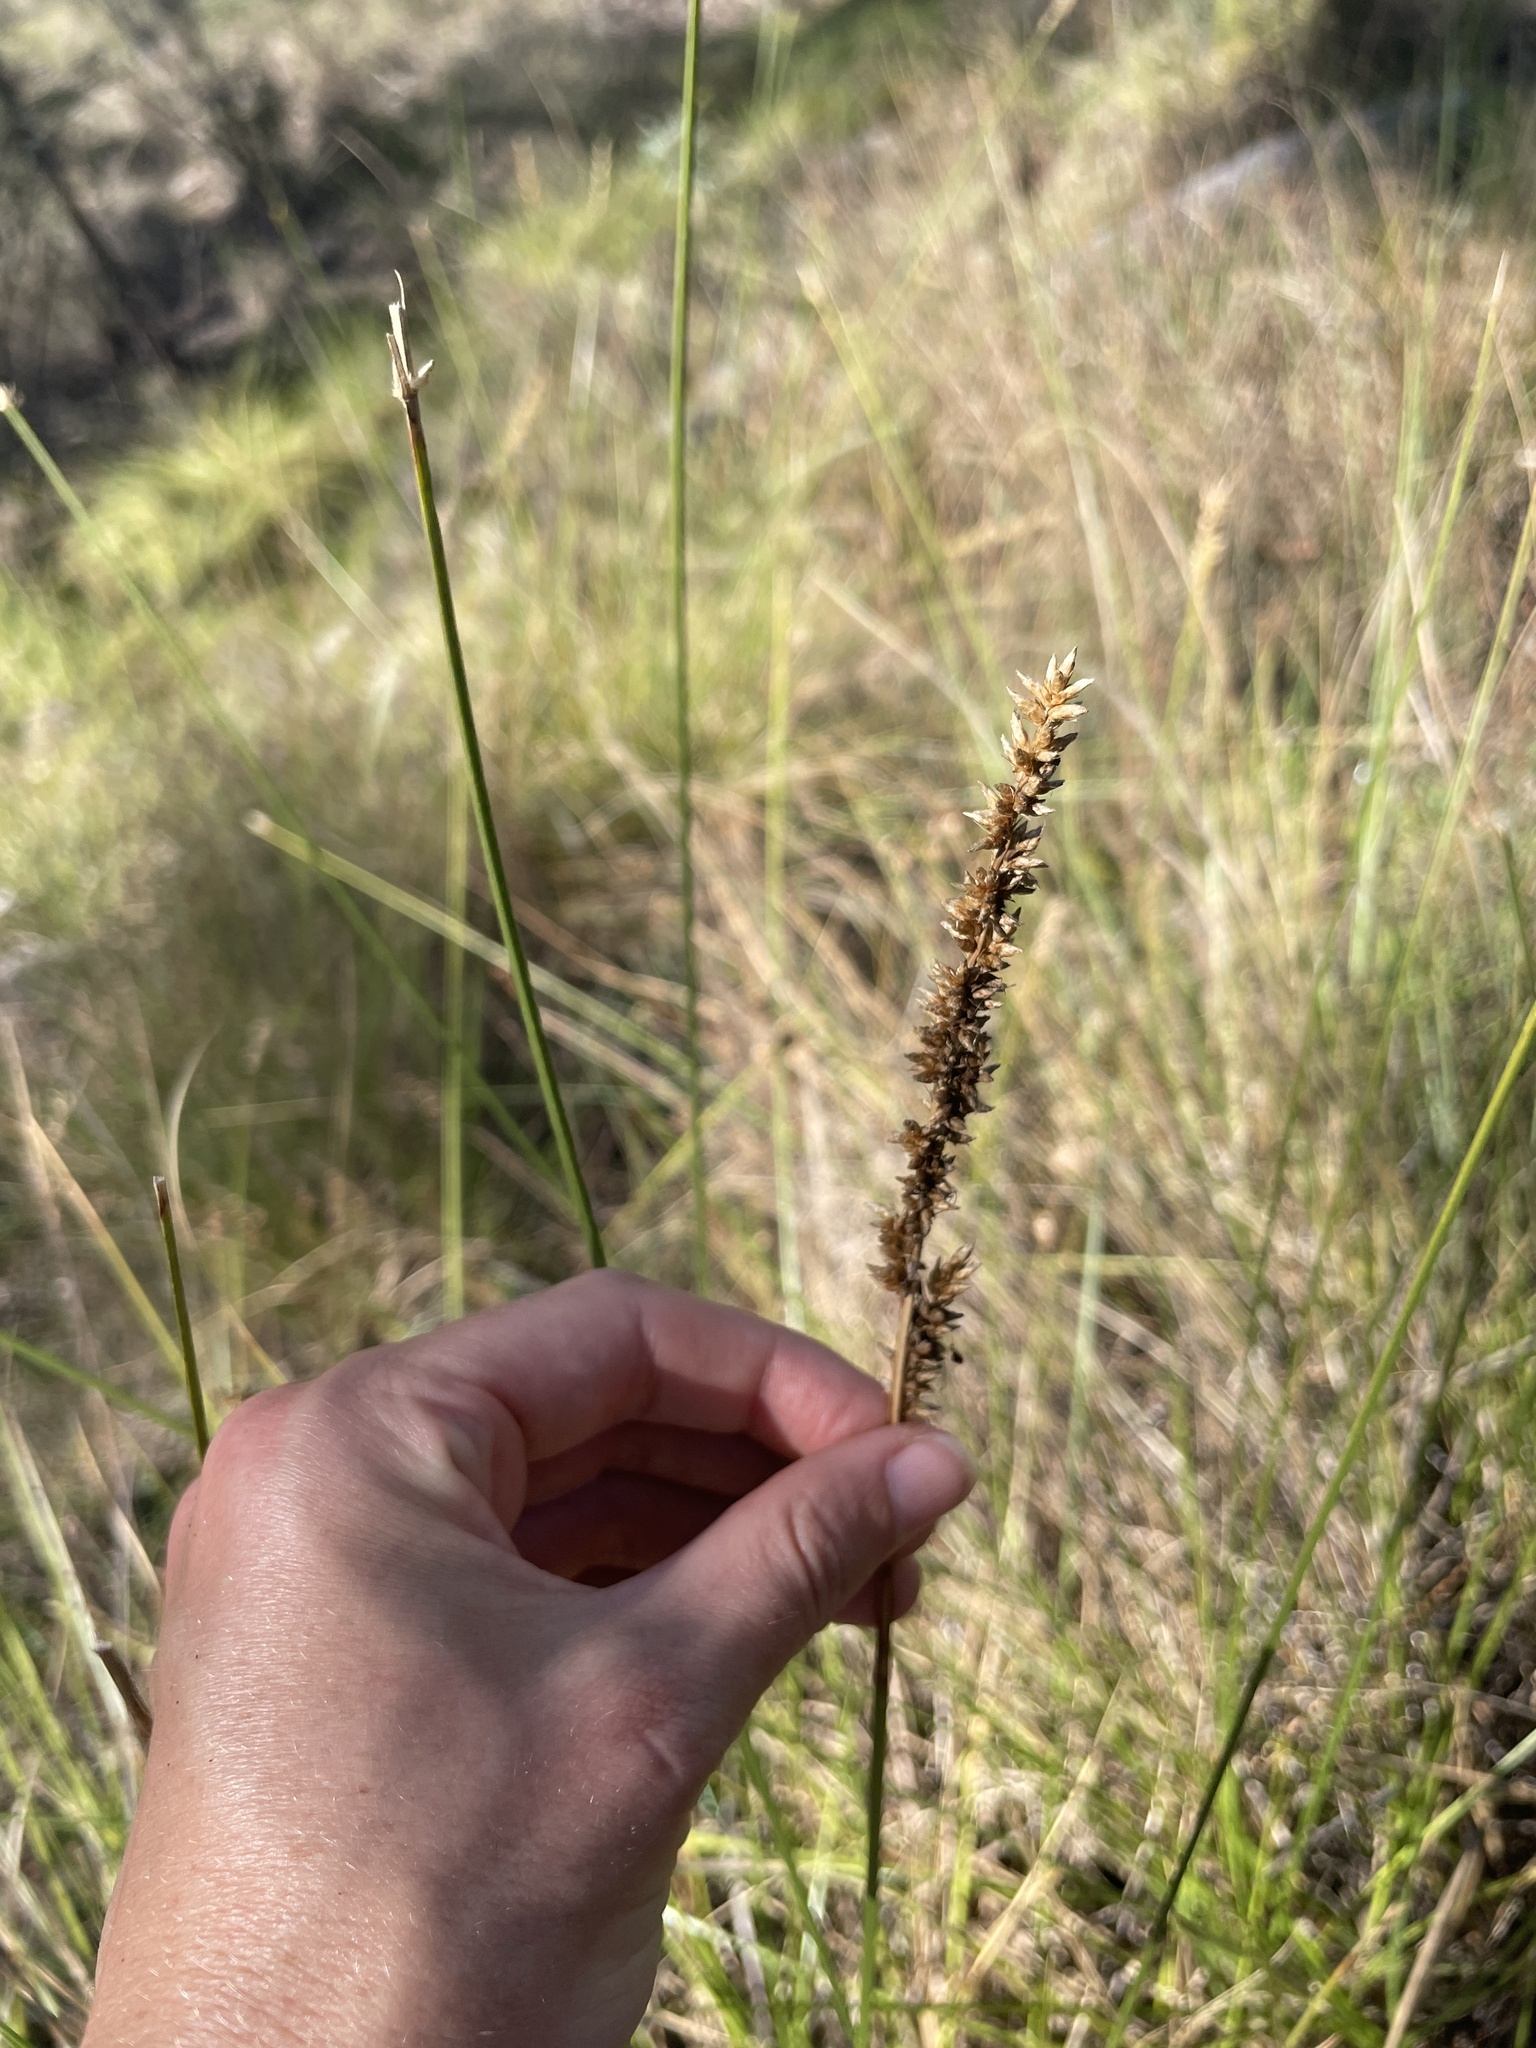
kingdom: Plantae
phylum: Tracheophyta
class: Liliopsida
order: Poales
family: Cyperaceae
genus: Carex
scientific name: Carex appressa
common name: Tussock sedge
